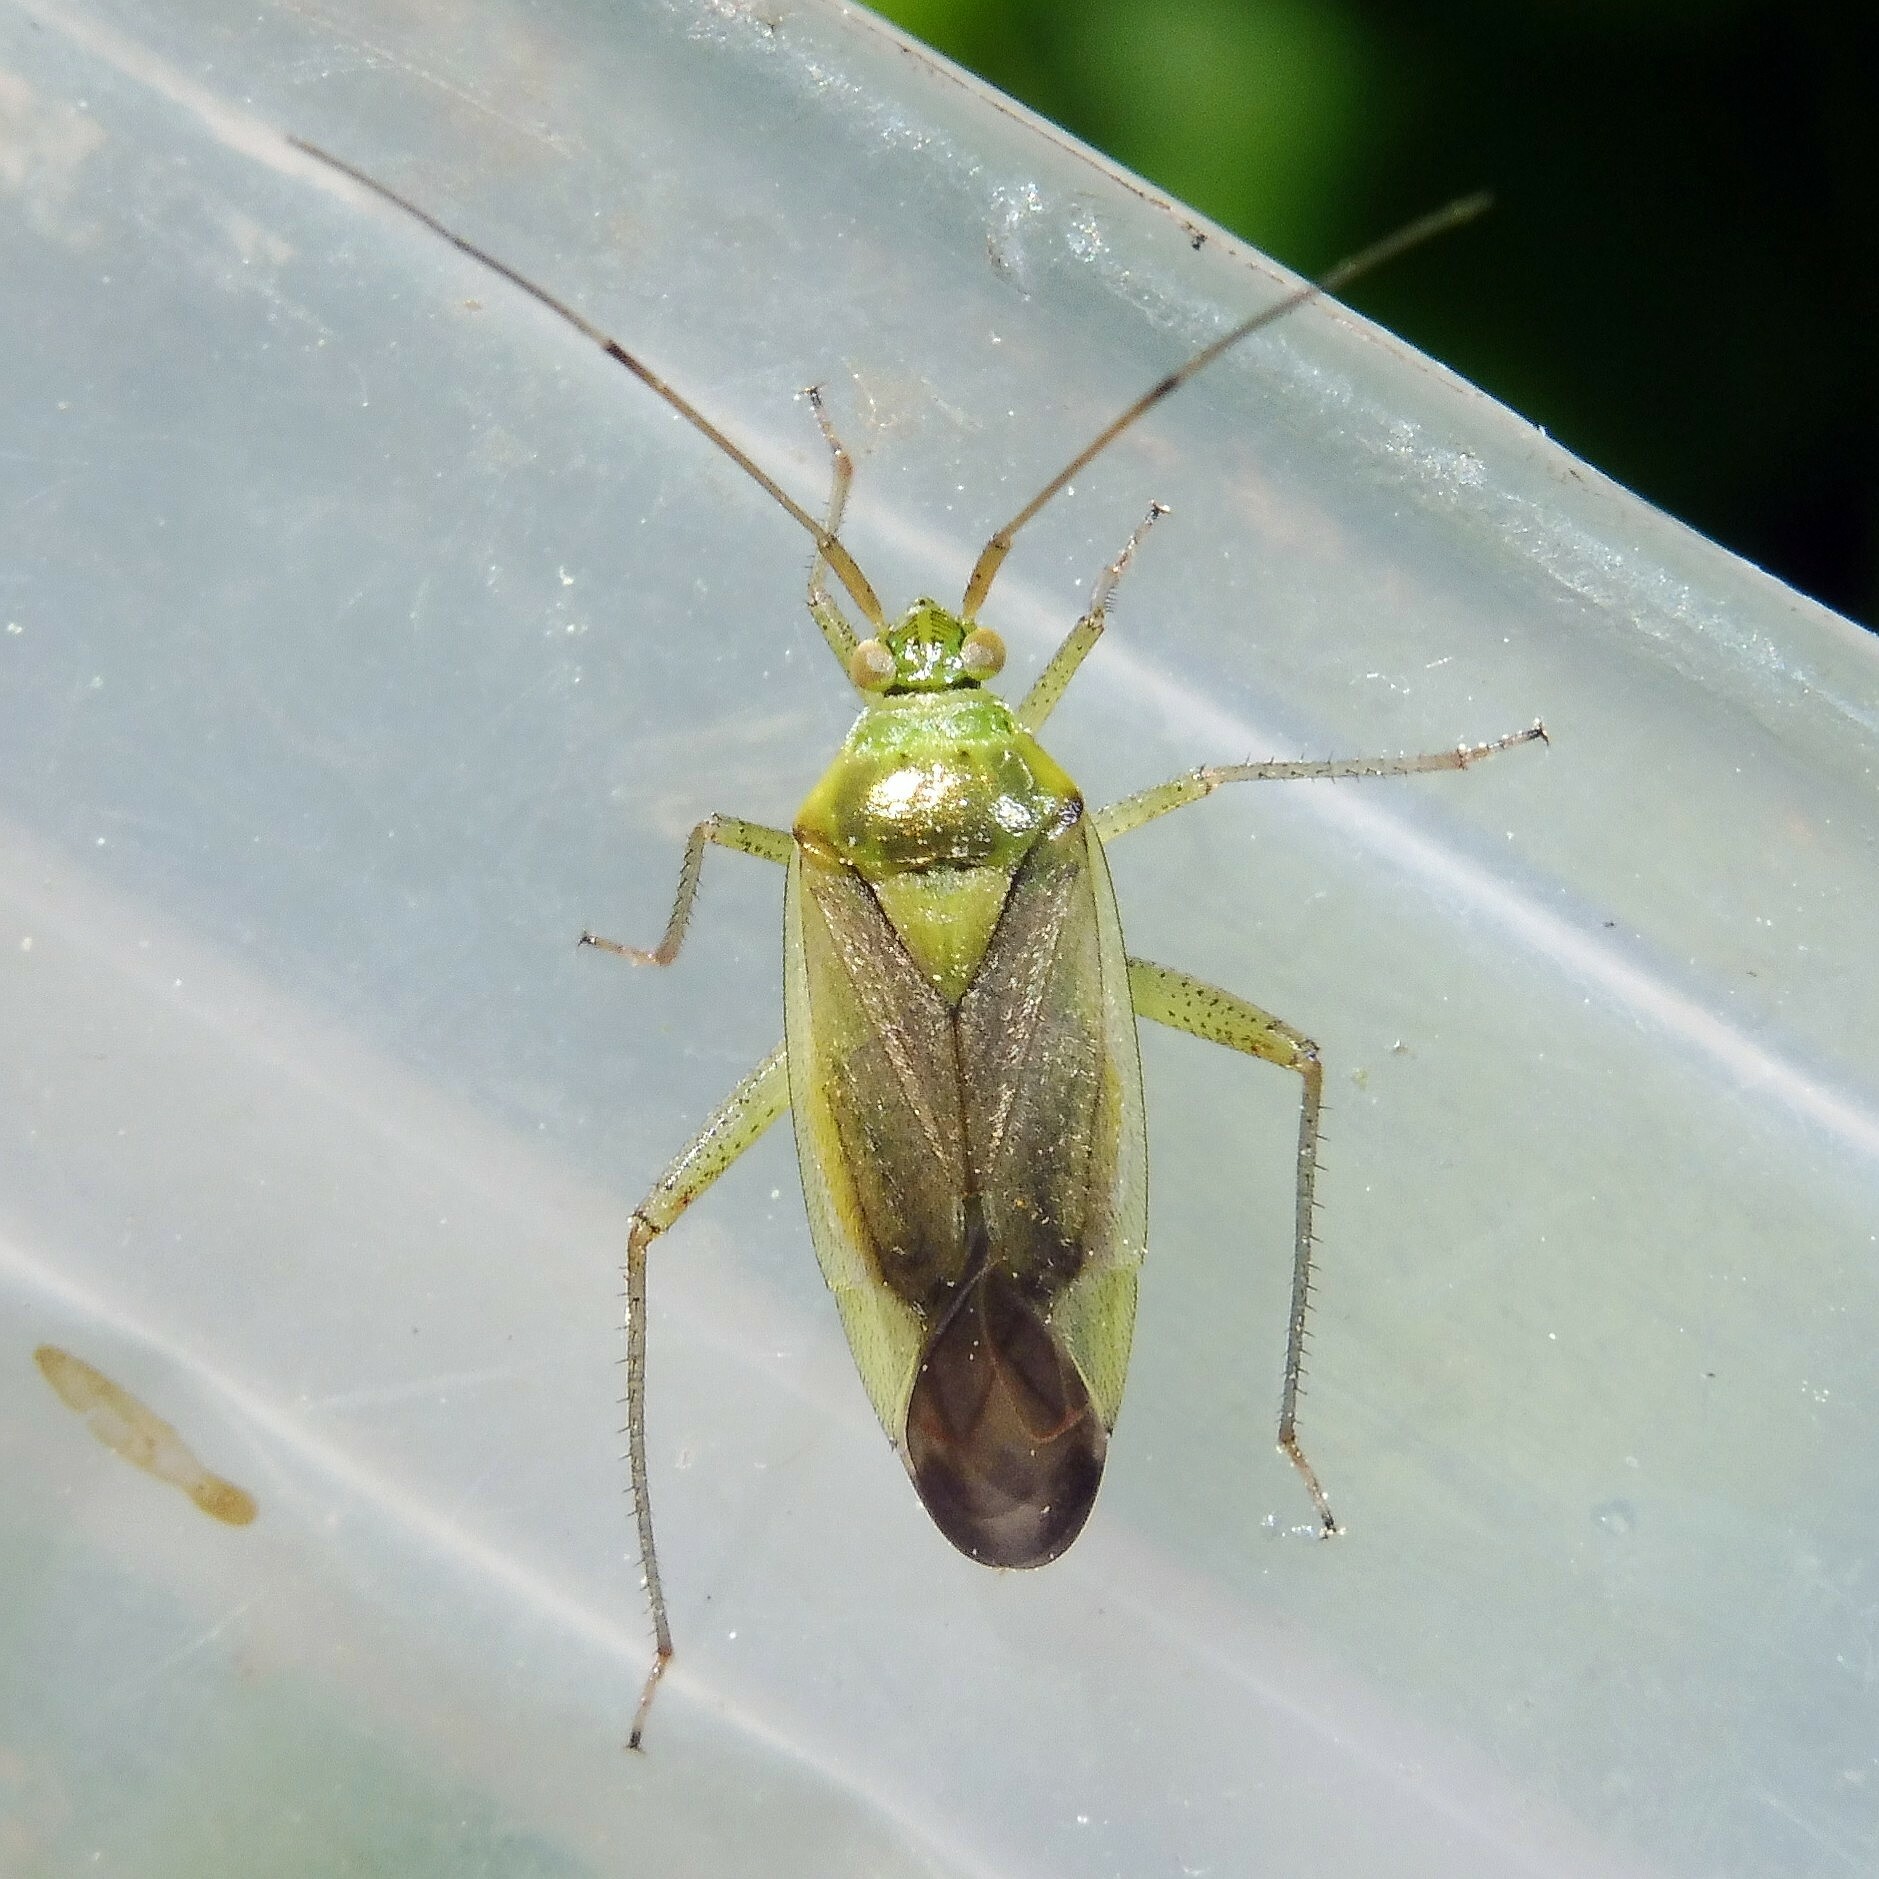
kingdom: Animalia
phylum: Arthropoda
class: Insecta
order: Hemiptera
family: Miridae
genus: Closterotomus
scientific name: Closterotomus trivialis
